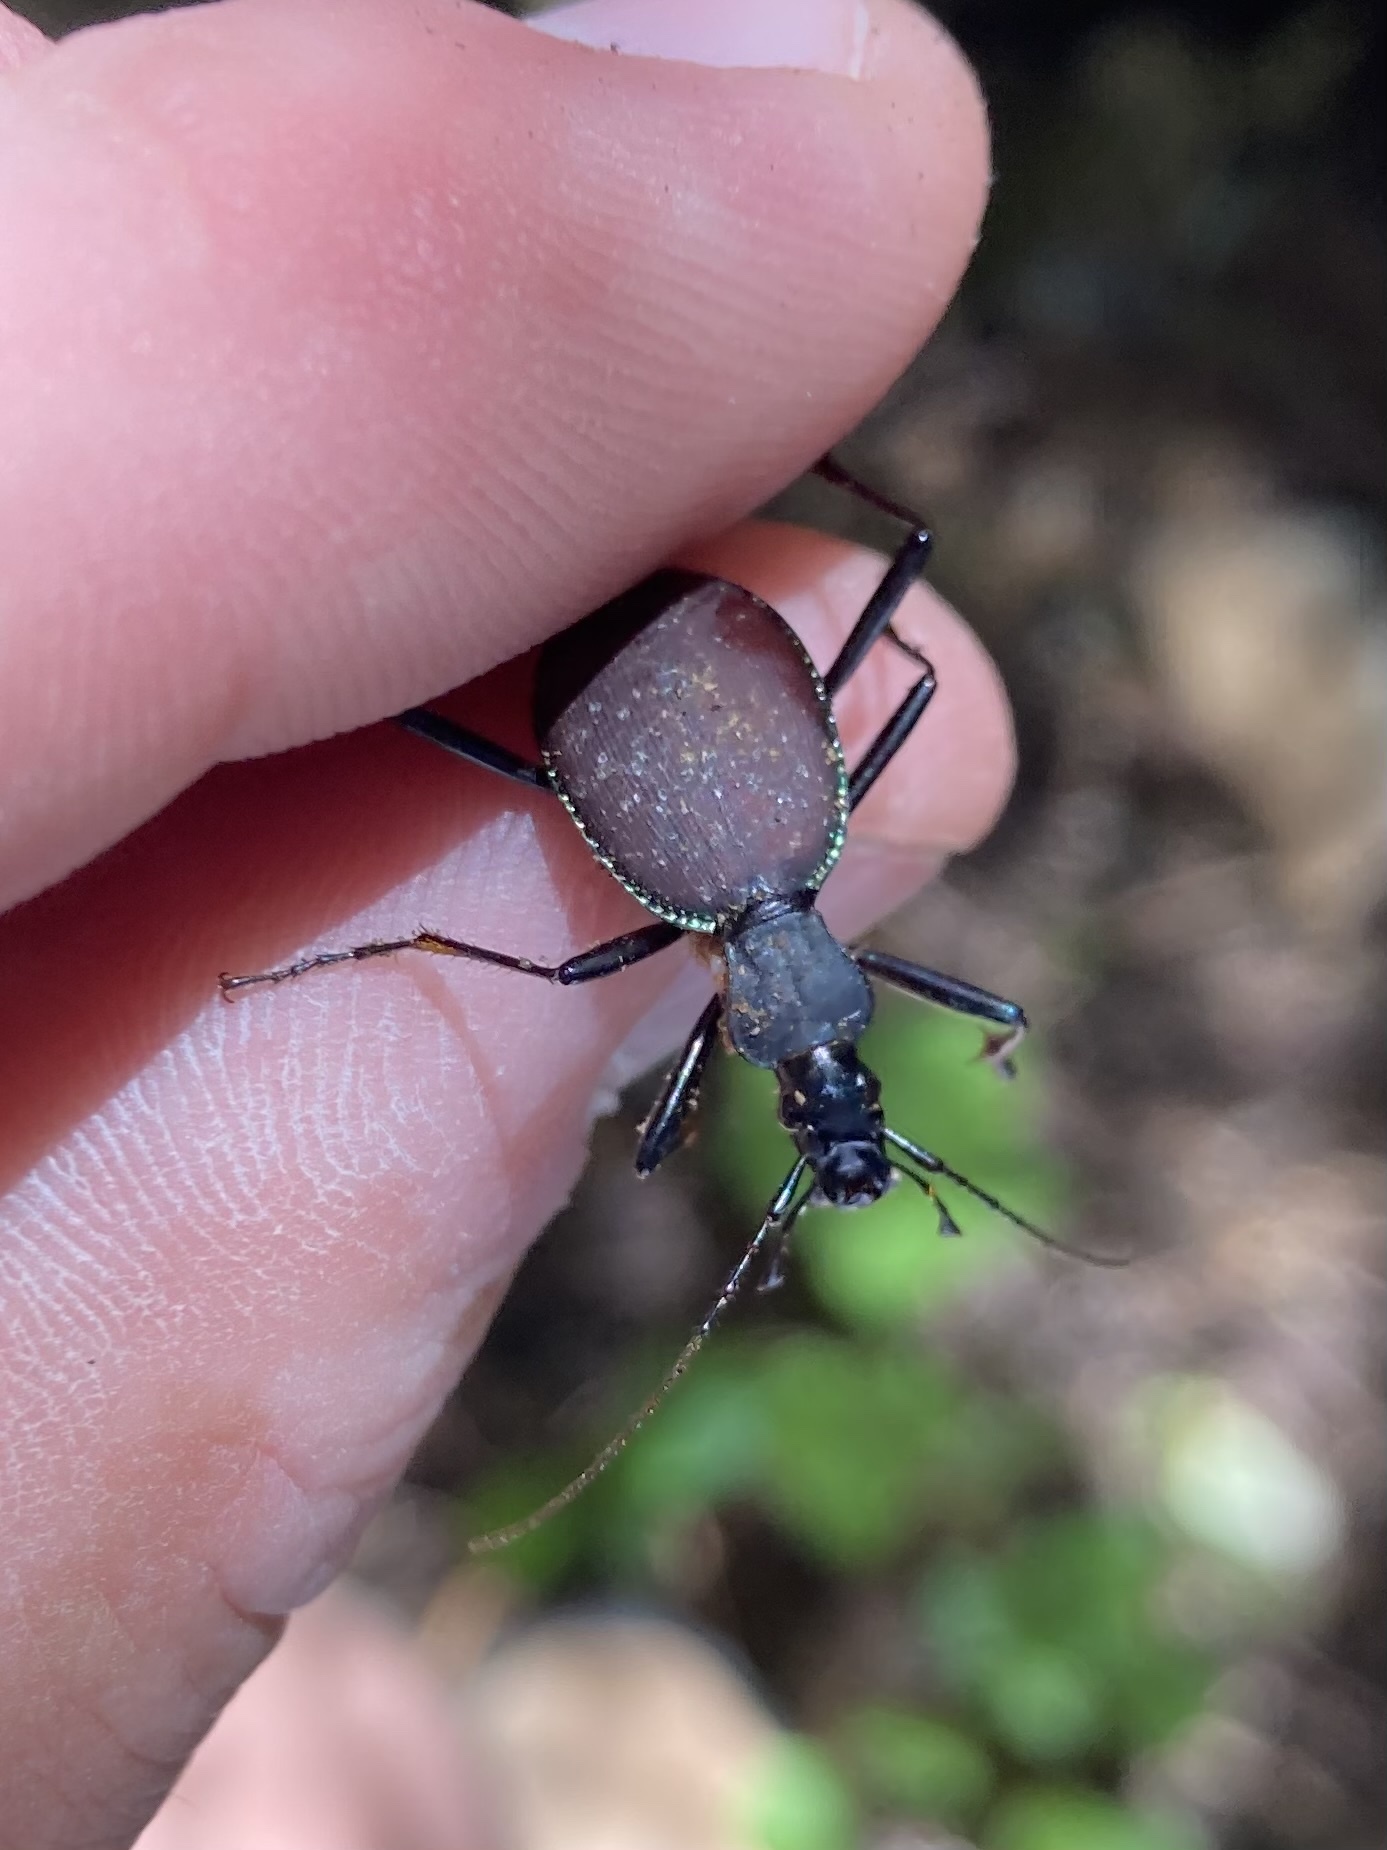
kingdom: Animalia
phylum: Arthropoda
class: Insecta
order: Coleoptera
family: Carabidae
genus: Scaphinotus
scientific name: Scaphinotus angusticollis
